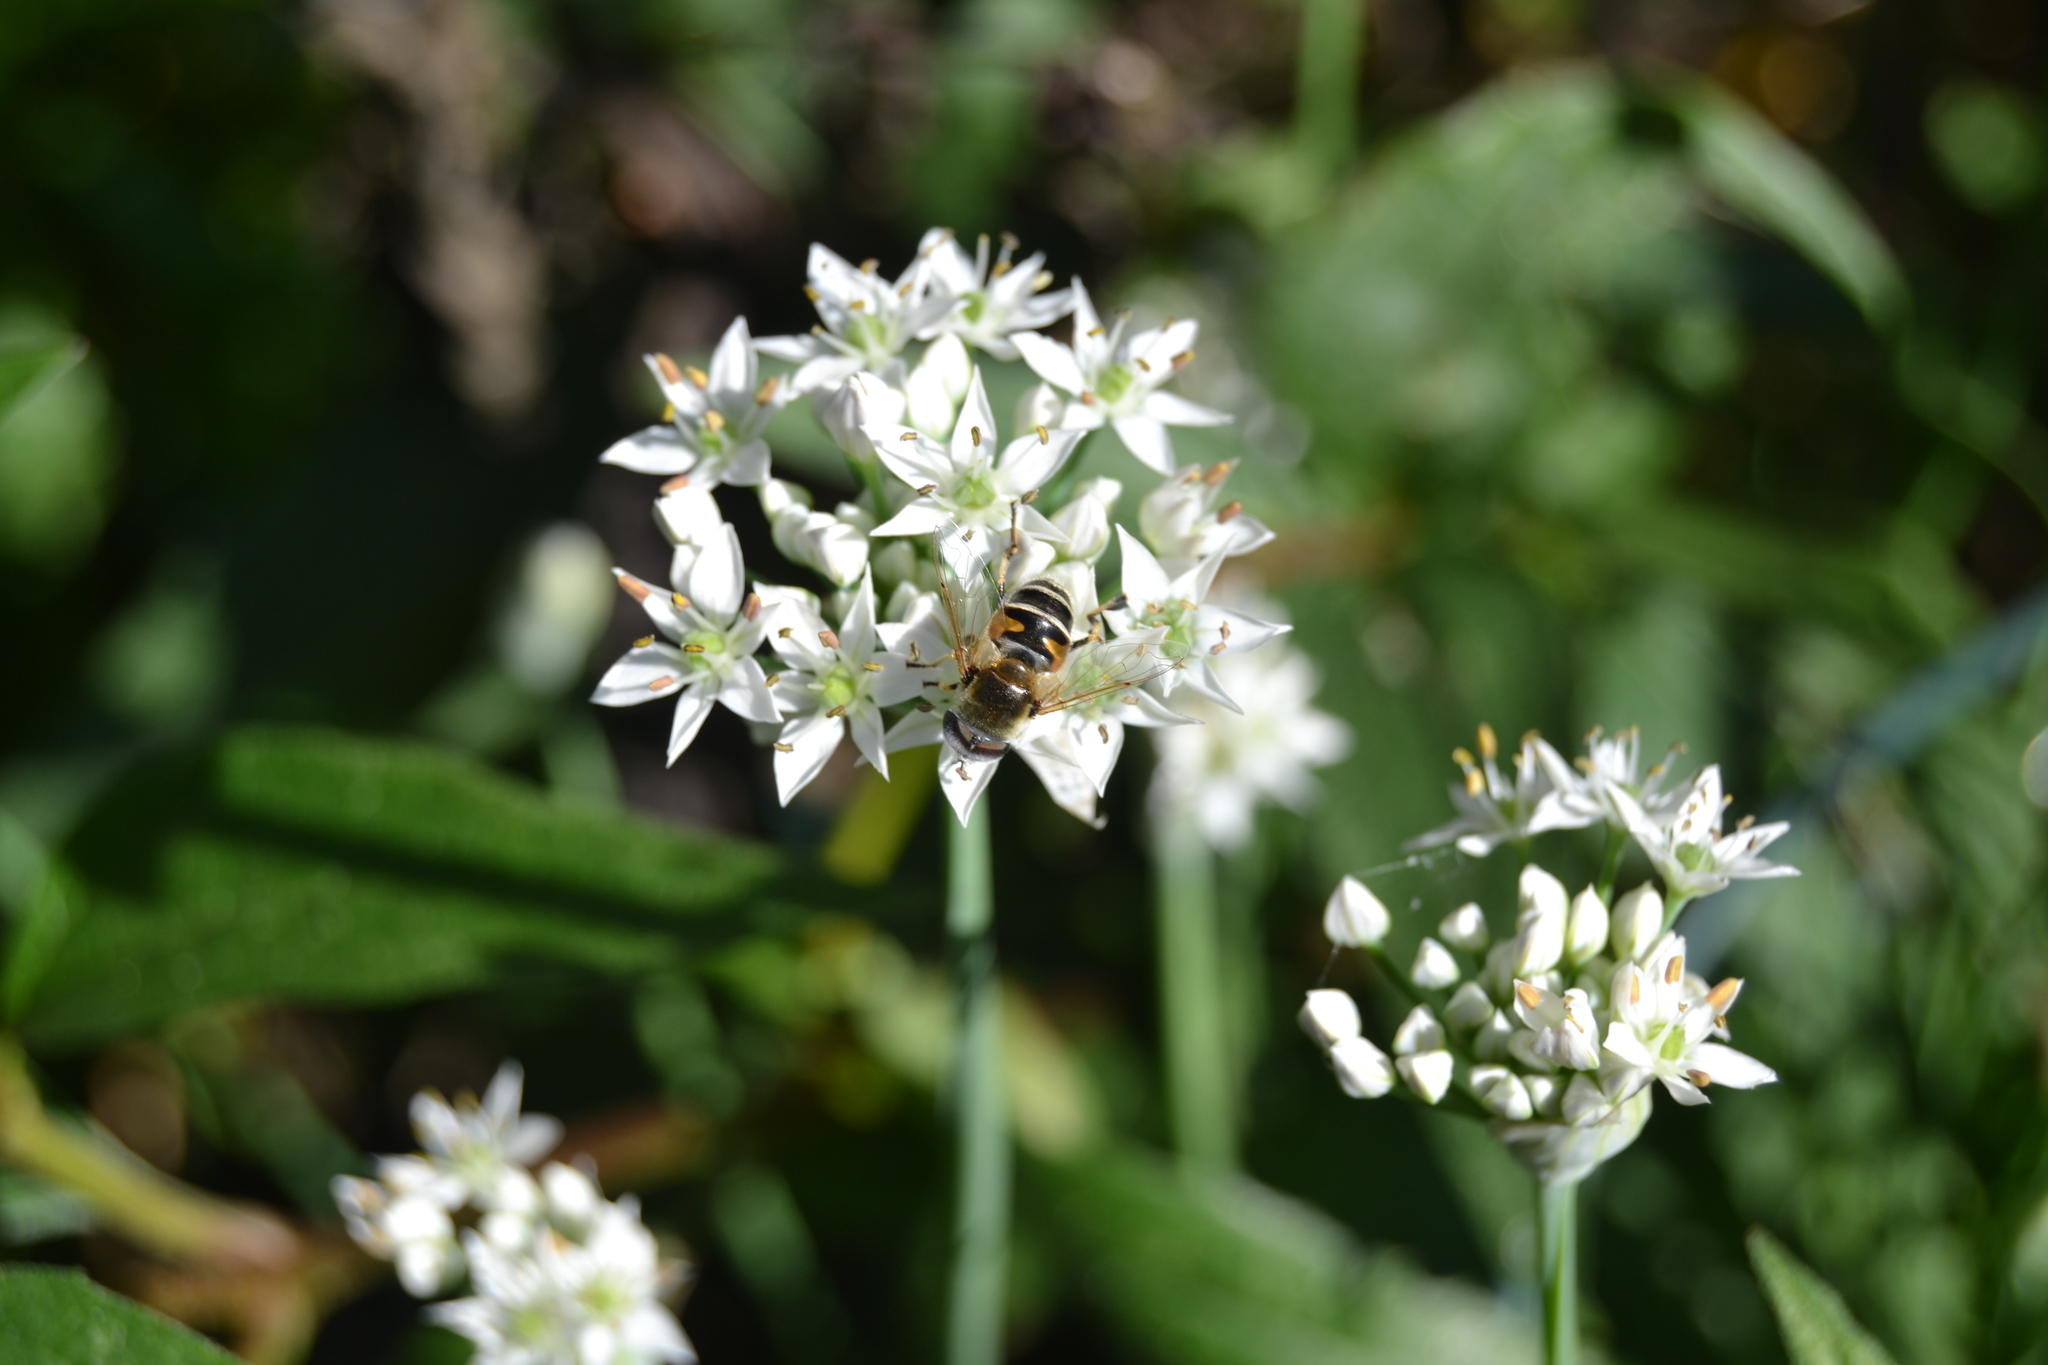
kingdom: Animalia
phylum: Arthropoda
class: Insecta
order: Diptera
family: Syrphidae
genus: Eristalis
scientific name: Eristalis stipator
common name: Yellow-shouldered drone fly
